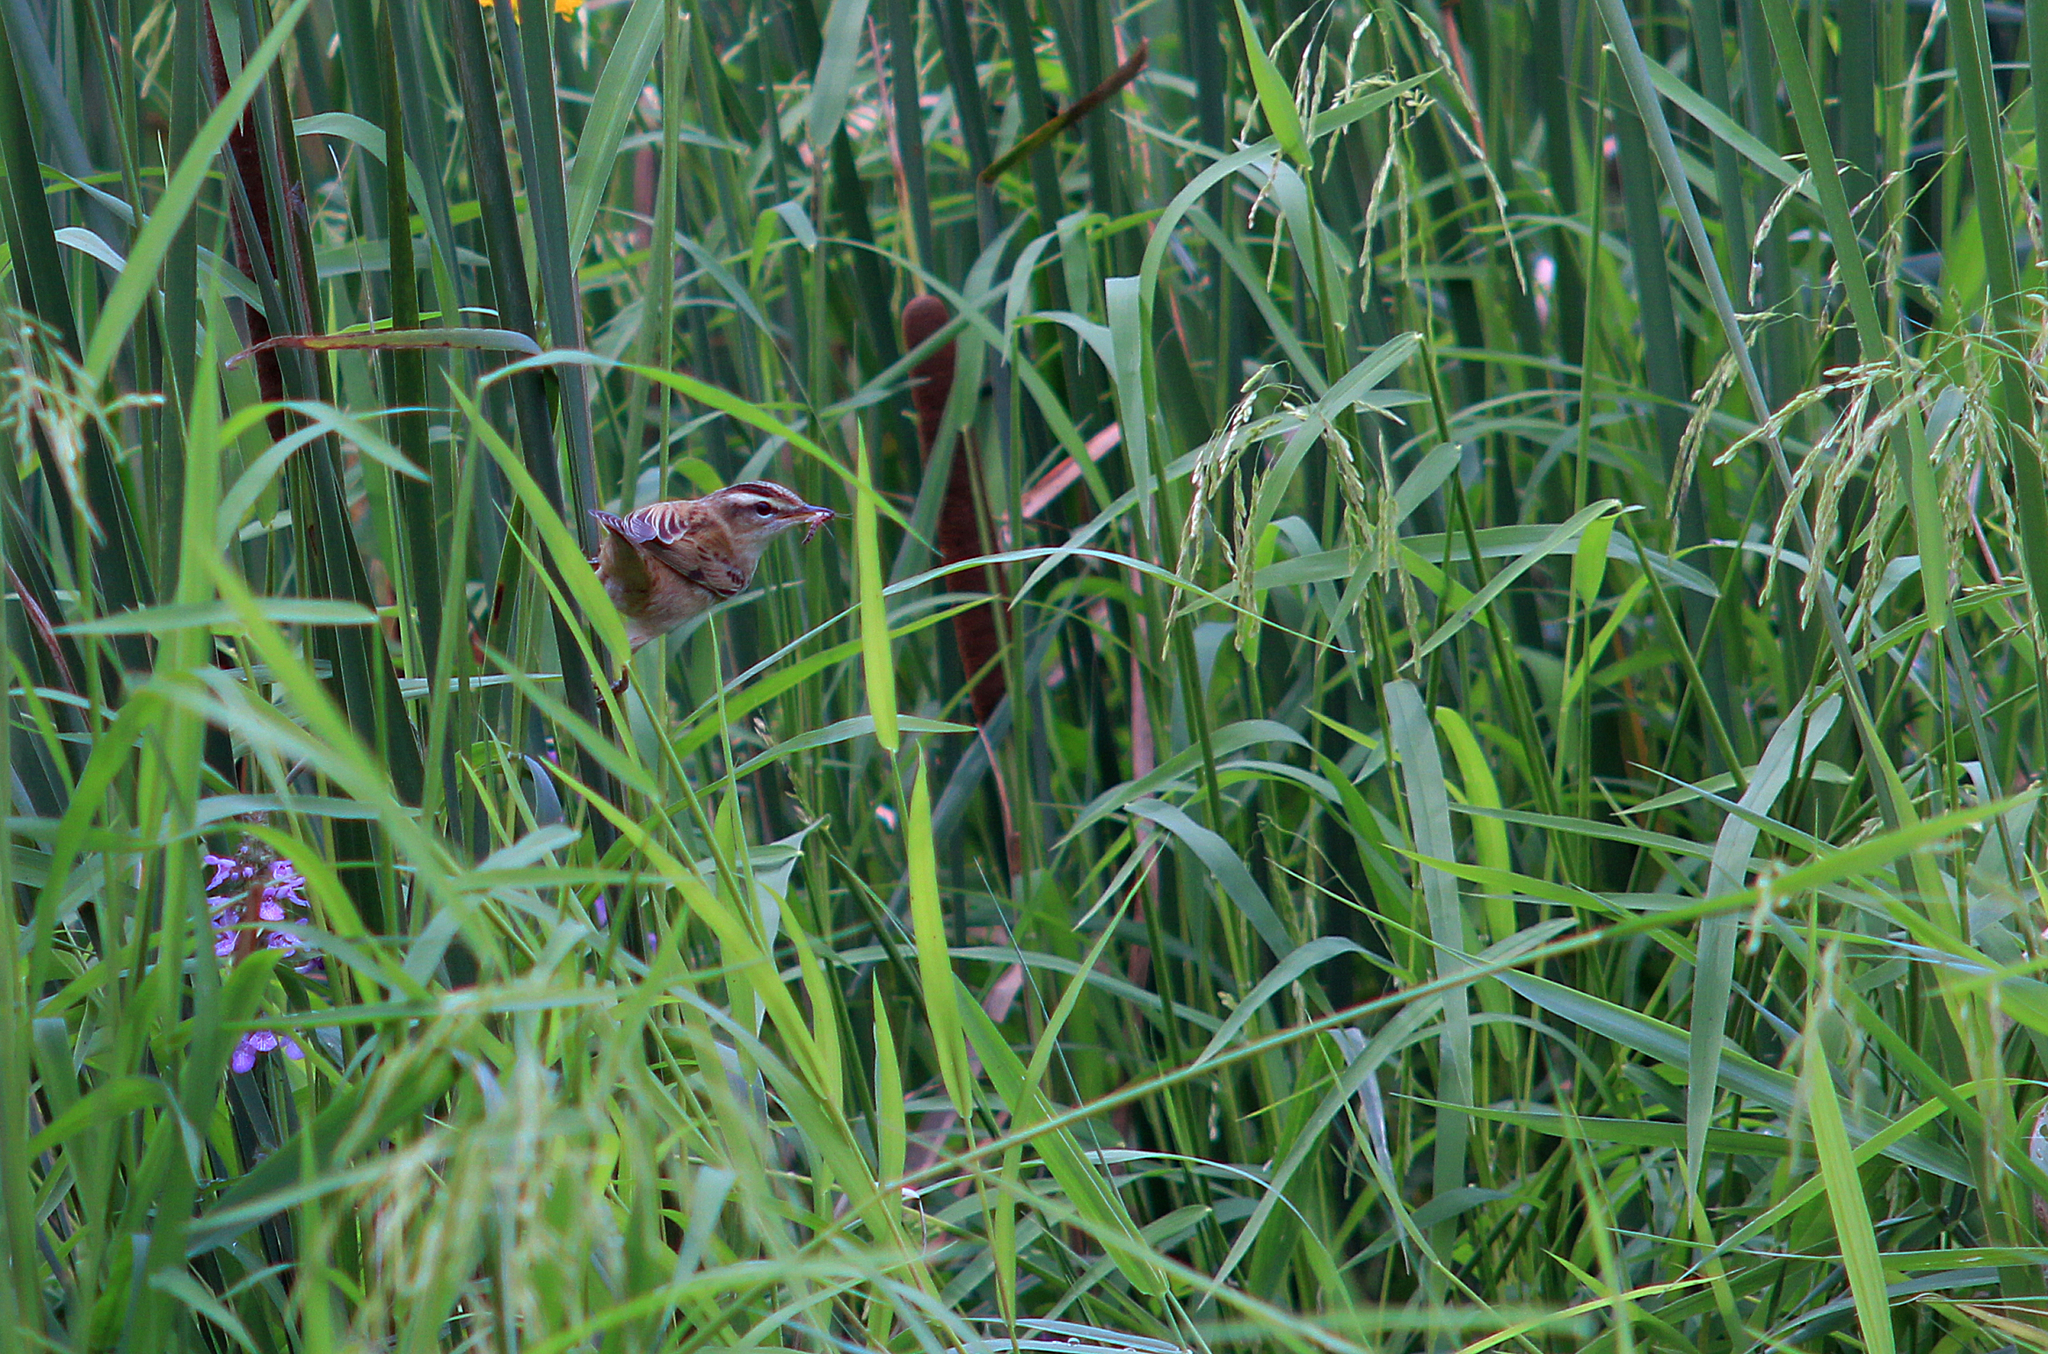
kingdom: Animalia
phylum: Chordata
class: Aves
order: Passeriformes
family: Acrocephalidae
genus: Acrocephalus
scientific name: Acrocephalus schoenobaenus
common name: Sedge warbler
